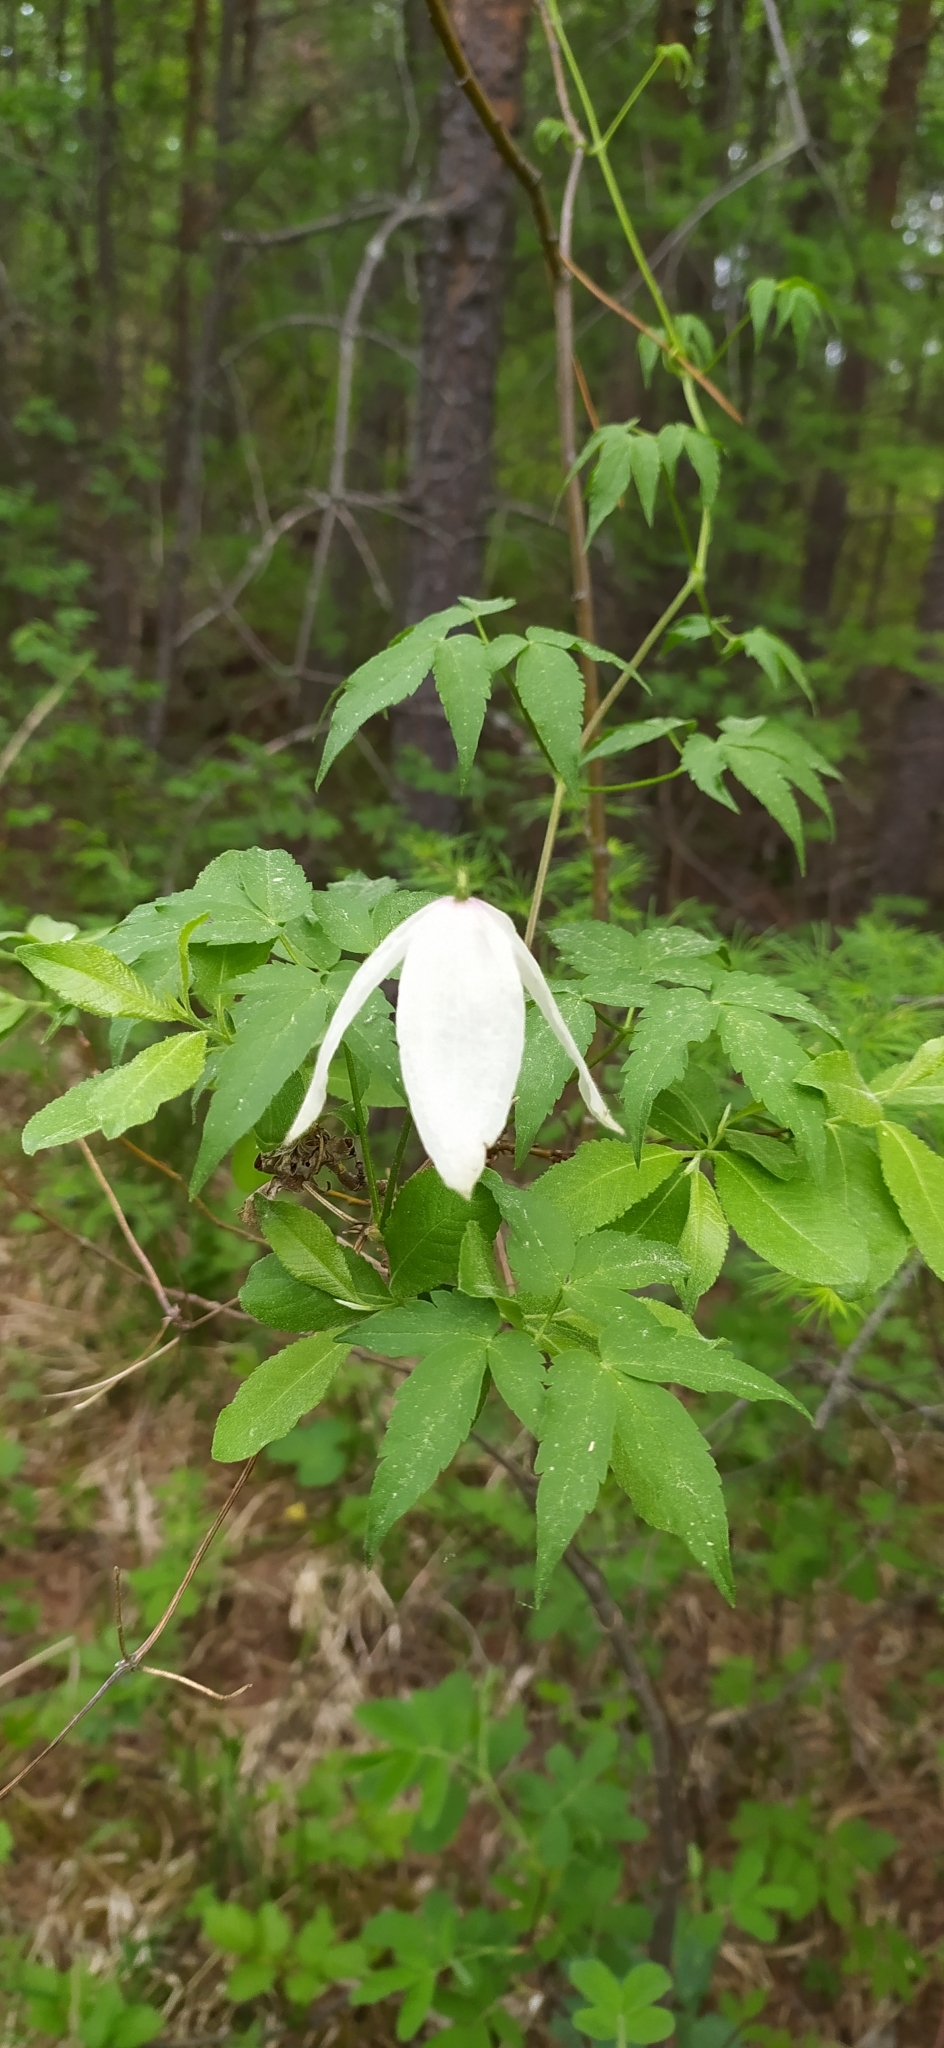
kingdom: Plantae
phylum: Tracheophyta
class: Magnoliopsida
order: Ranunculales
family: Ranunculaceae
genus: Clematis
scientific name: Clematis sibirica
